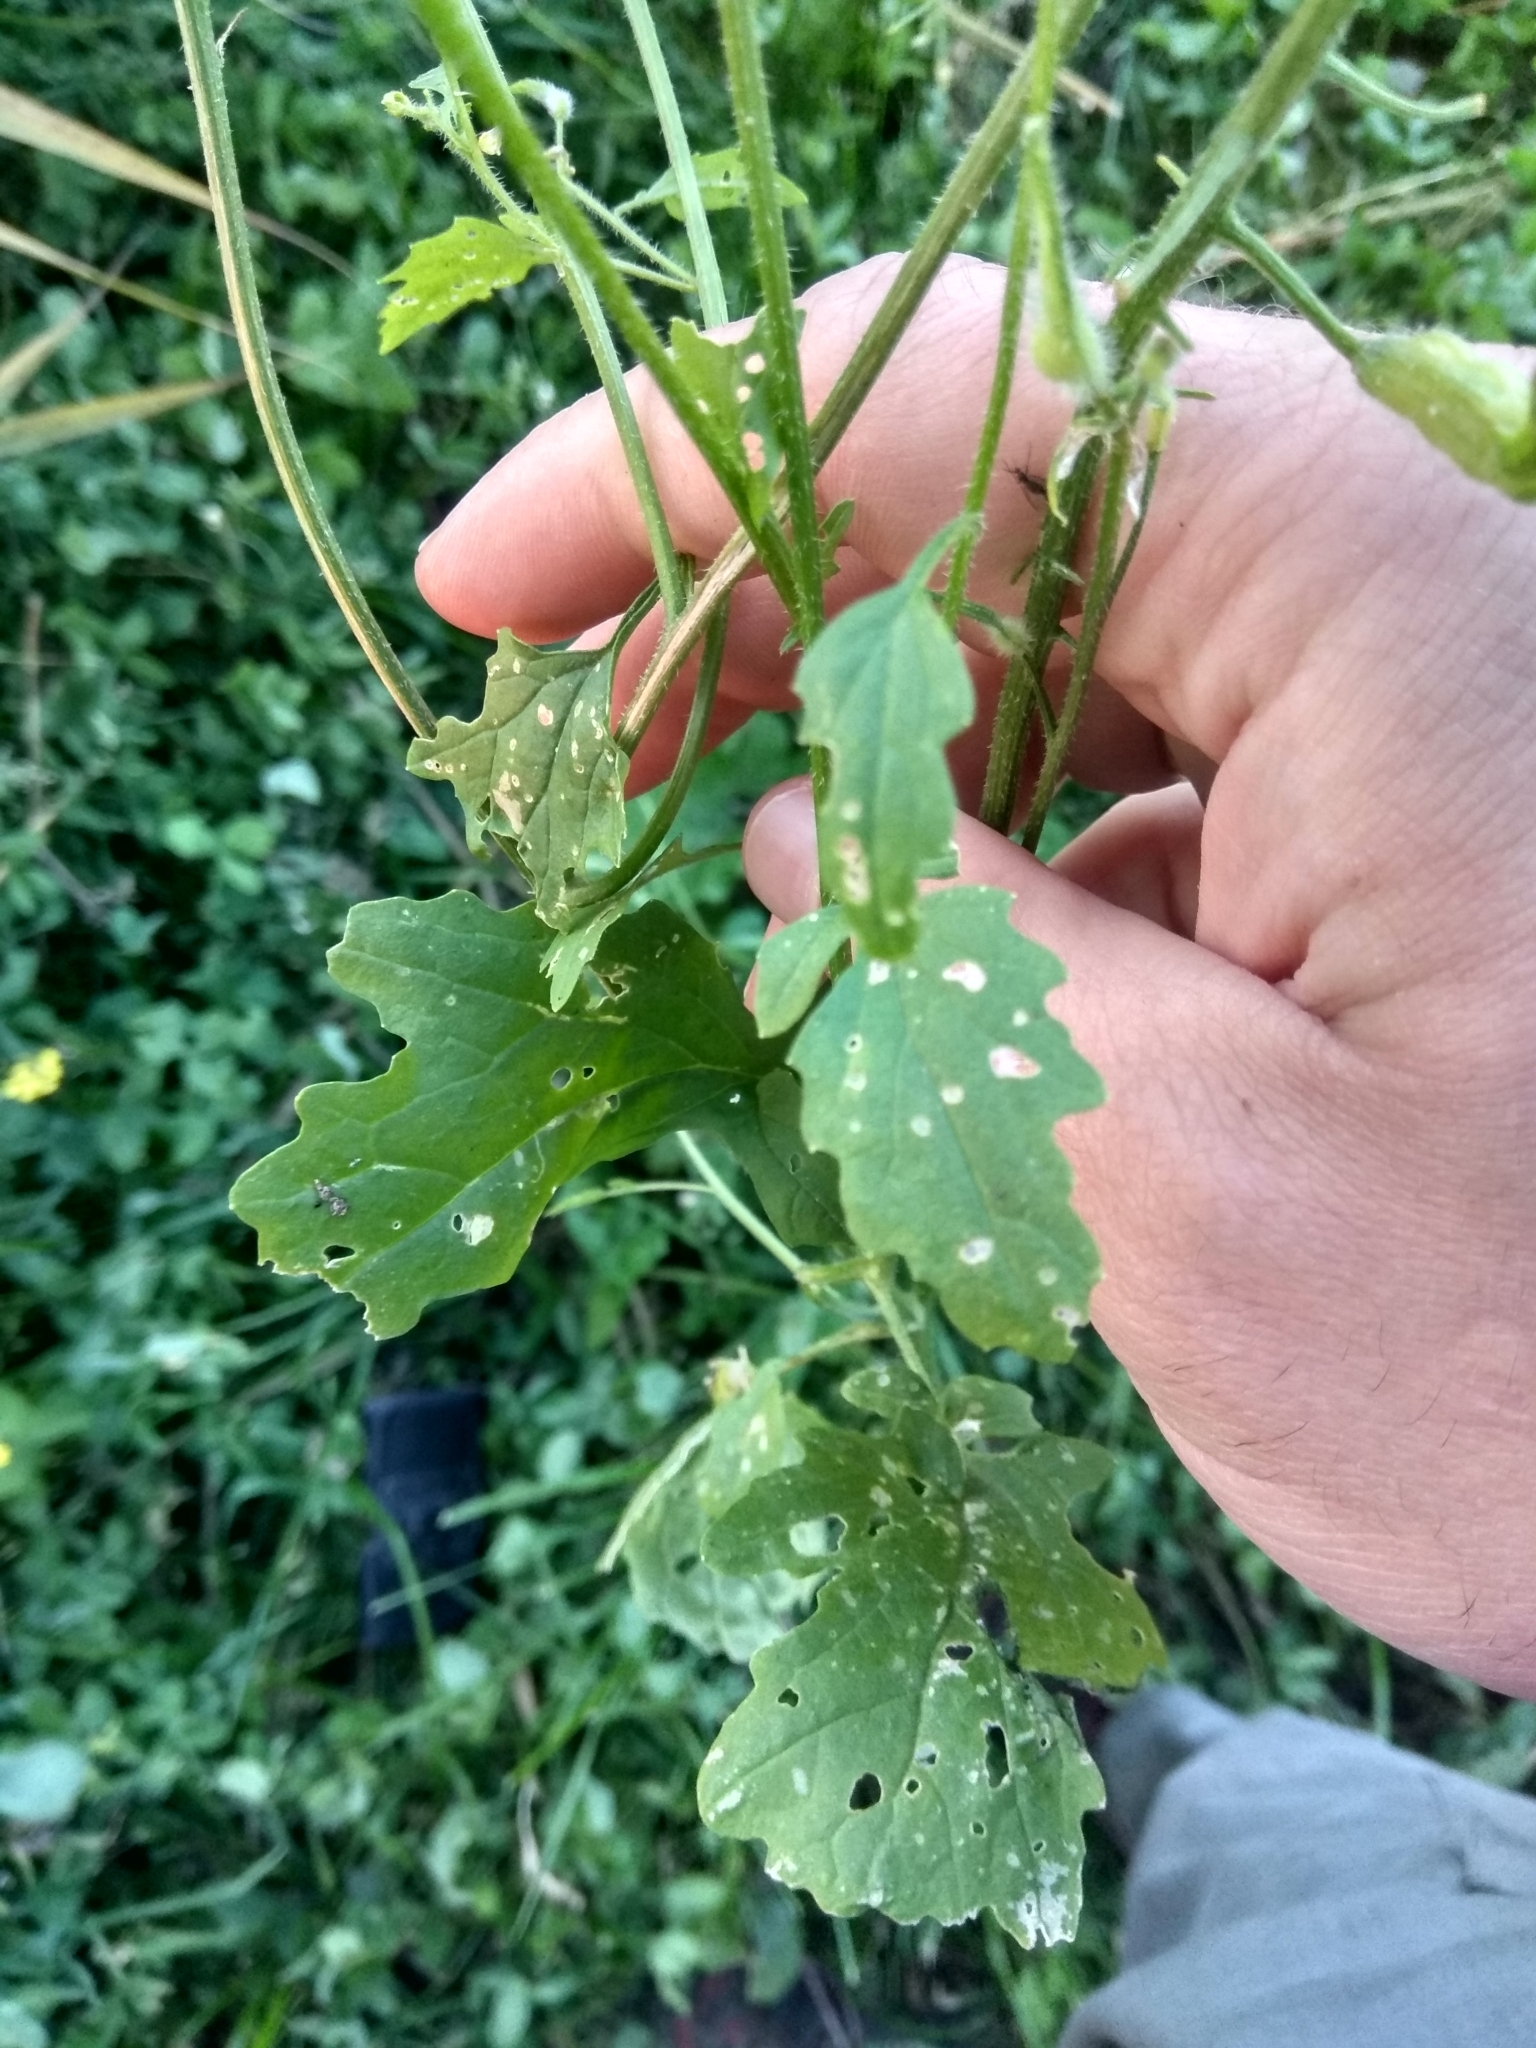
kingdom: Plantae
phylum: Tracheophyta
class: Magnoliopsida
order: Brassicales
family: Brassicaceae
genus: Sinapis
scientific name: Sinapis alba
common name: White mustard
